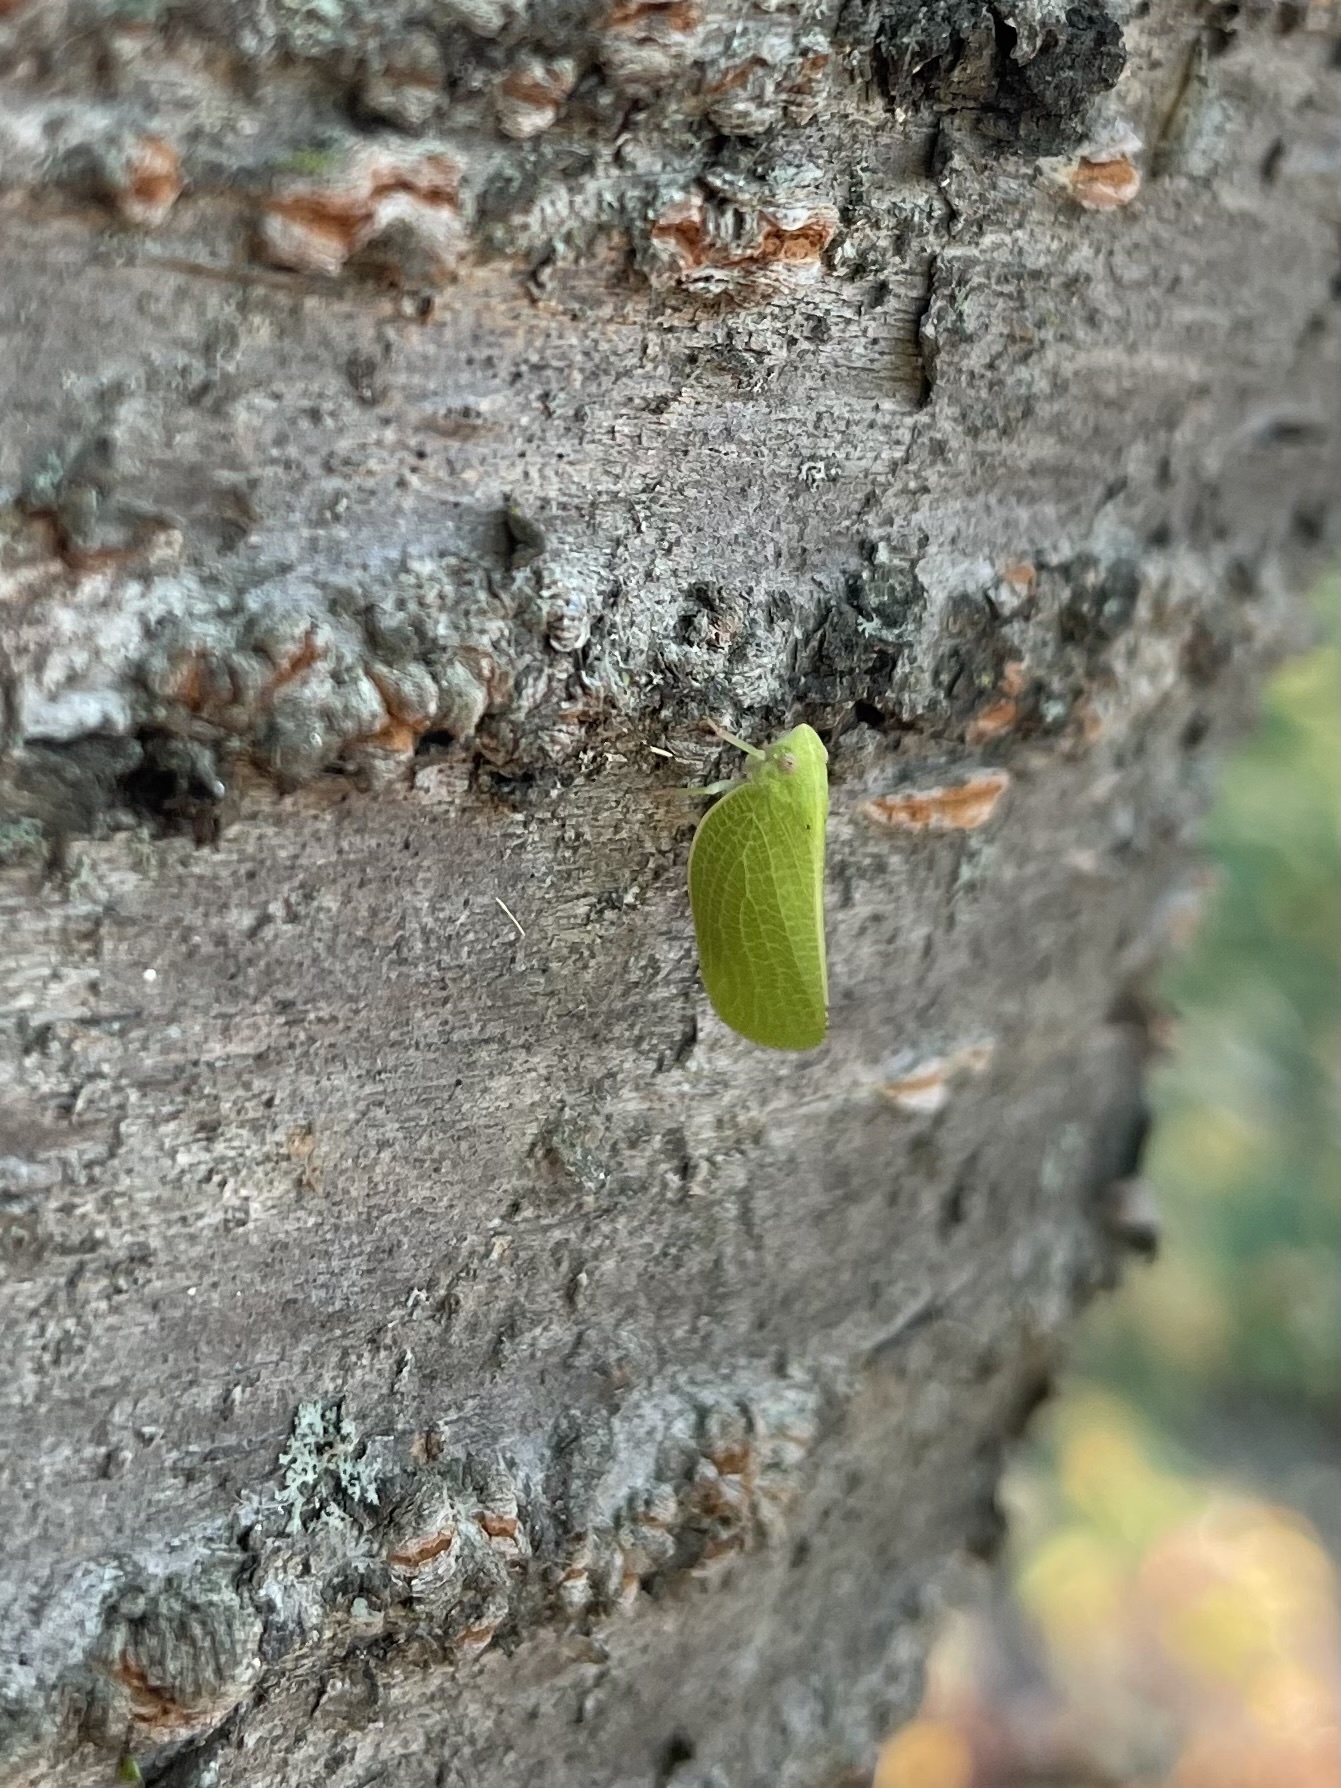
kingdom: Animalia
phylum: Arthropoda
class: Insecta
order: Hemiptera
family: Acanaloniidae
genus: Acanalonia
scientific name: Acanalonia conica
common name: Green cone-headed planthopper
